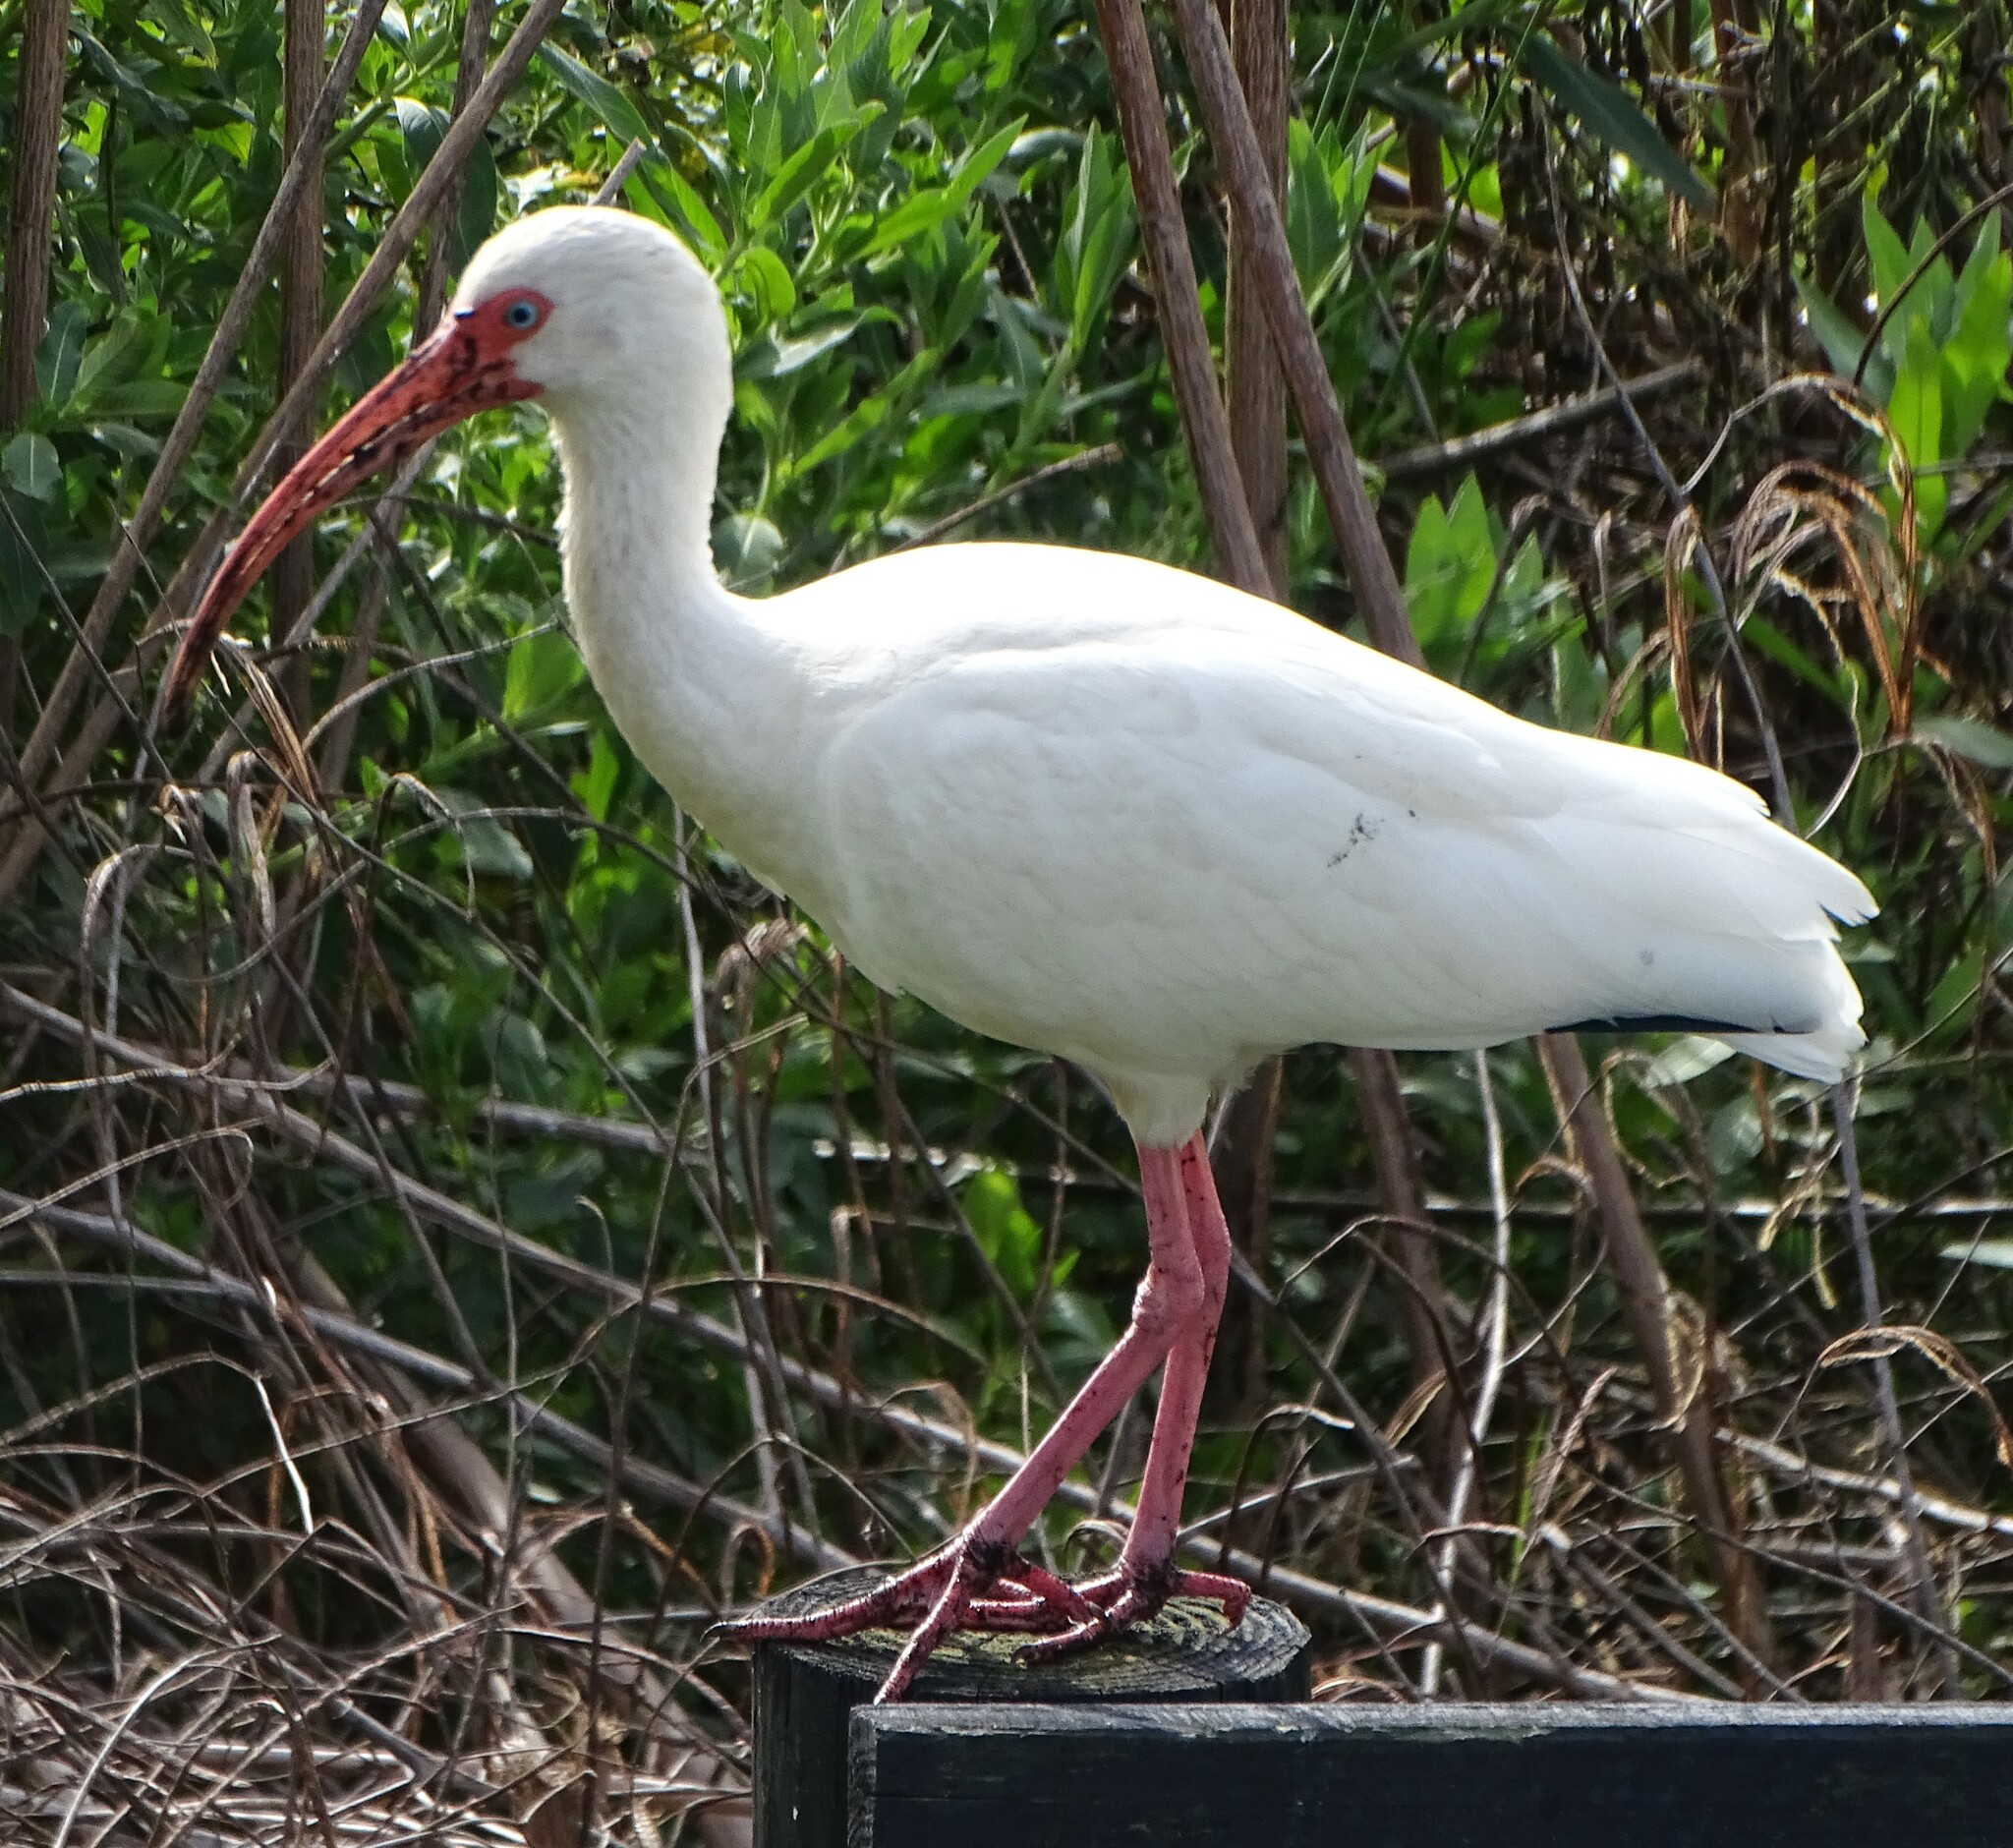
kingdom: Animalia
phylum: Chordata
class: Aves
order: Pelecaniformes
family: Threskiornithidae
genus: Eudocimus
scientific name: Eudocimus albus
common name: White ibis
